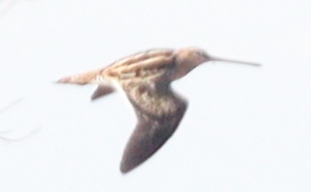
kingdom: Animalia
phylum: Chordata
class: Aves
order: Charadriiformes
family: Scolopacidae
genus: Gallinago
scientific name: Gallinago gallinago
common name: Common snipe
